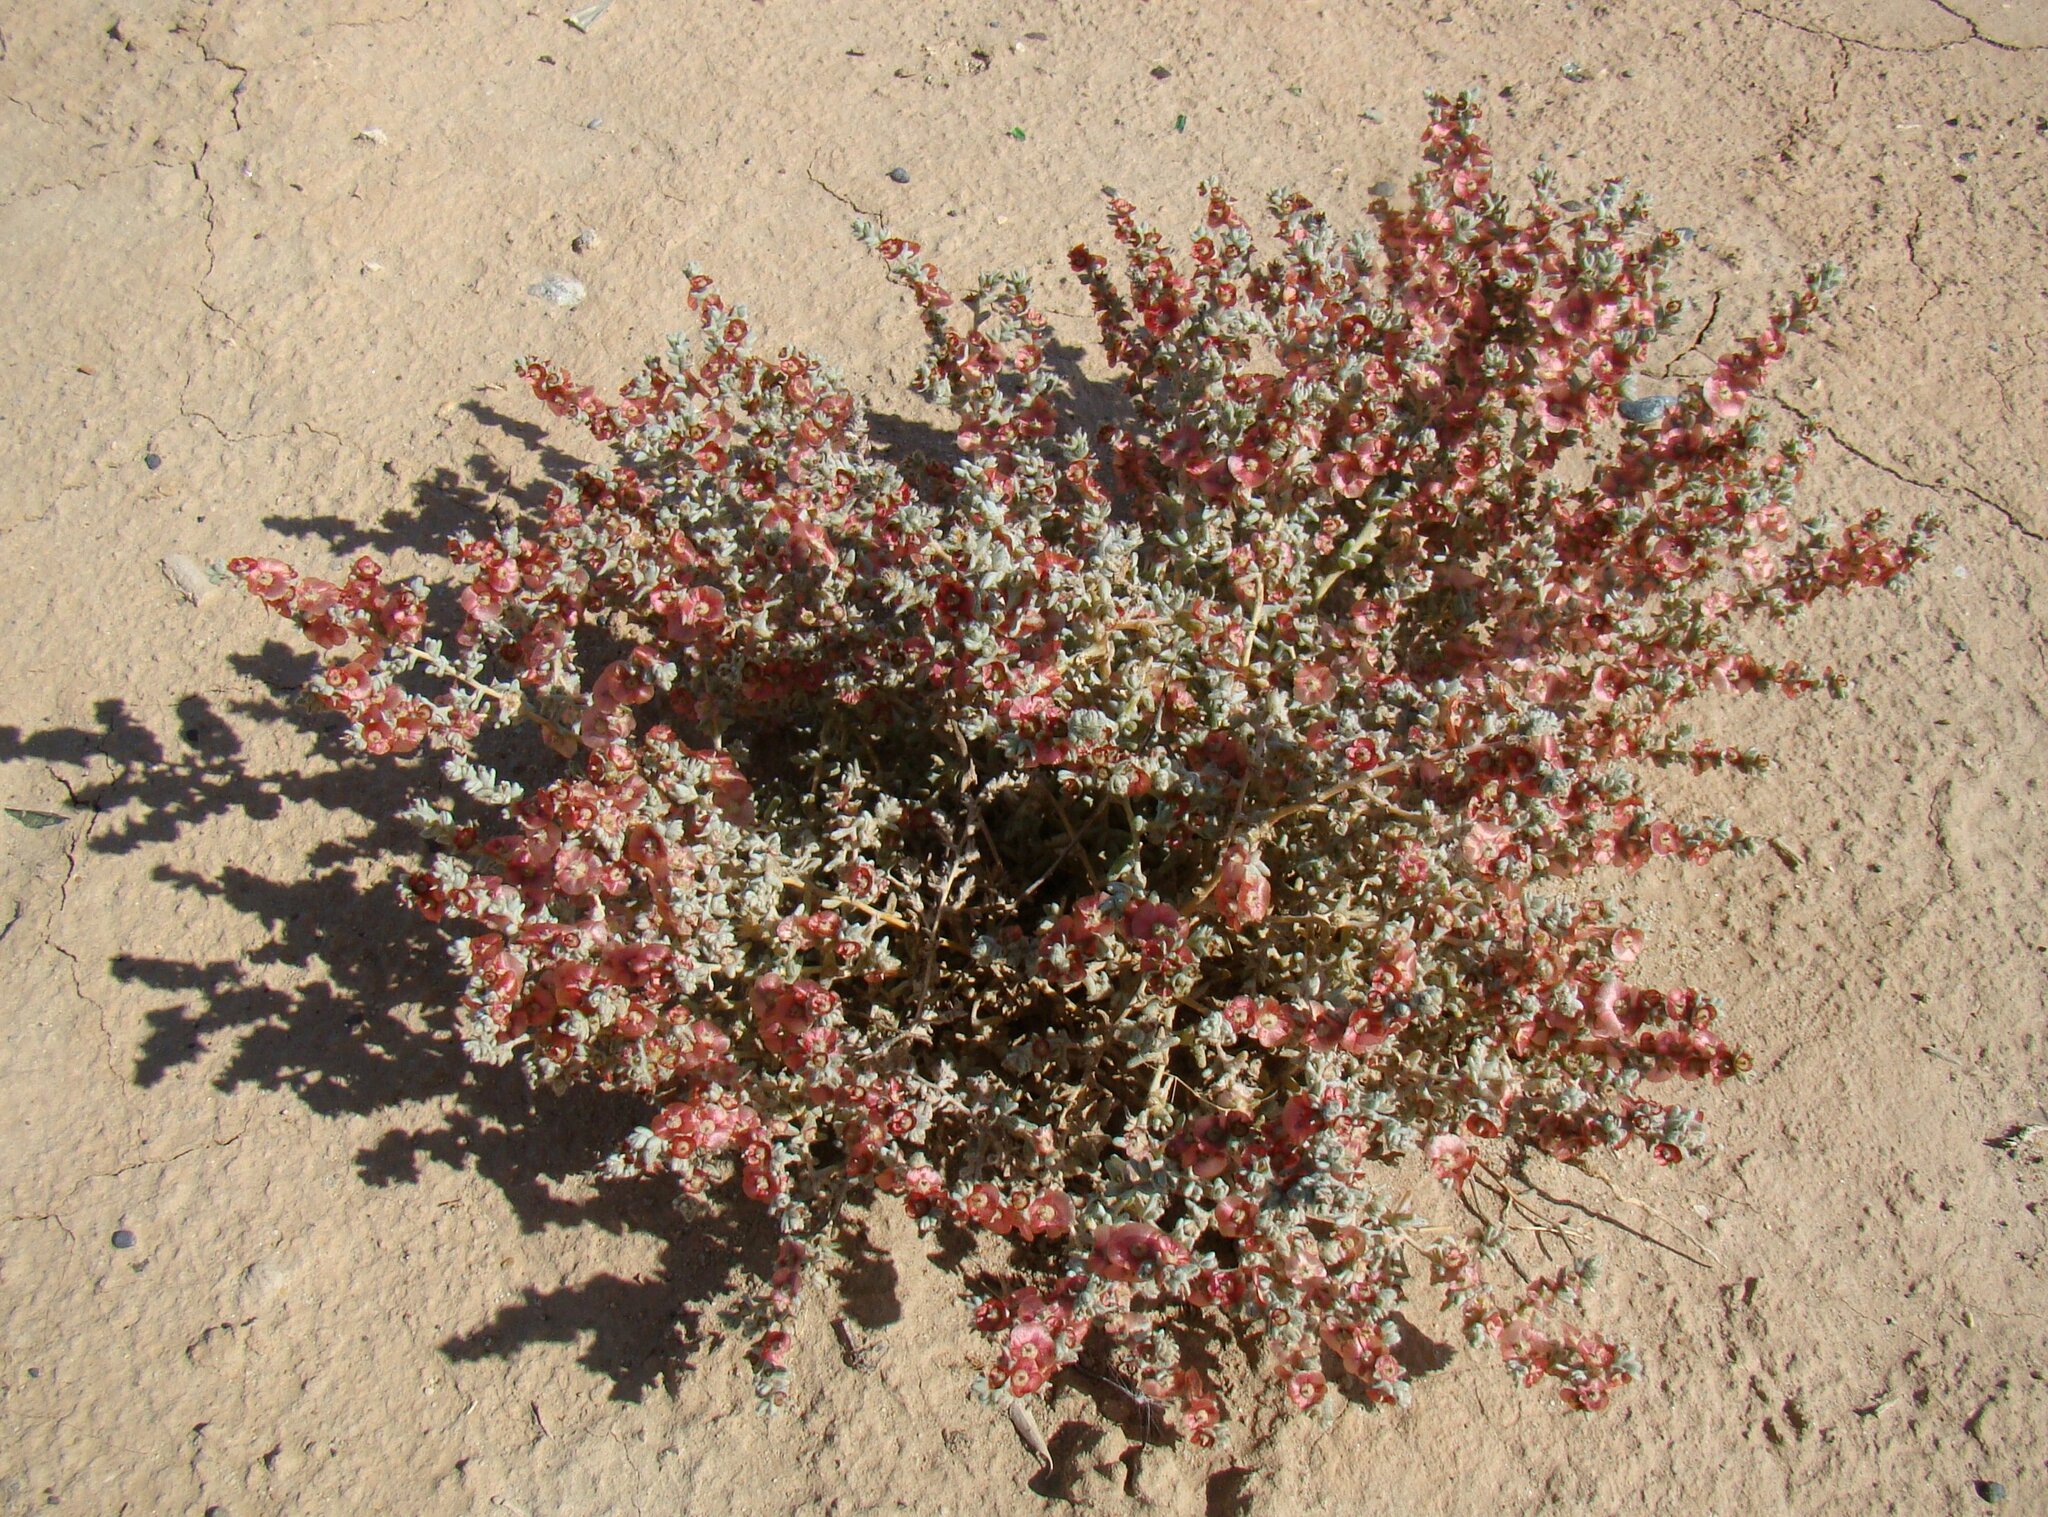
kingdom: Plantae
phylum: Tracheophyta
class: Magnoliopsida
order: Caryophyllales
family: Amaranthaceae
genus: Climacoptera
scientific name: Climacoptera lanata
